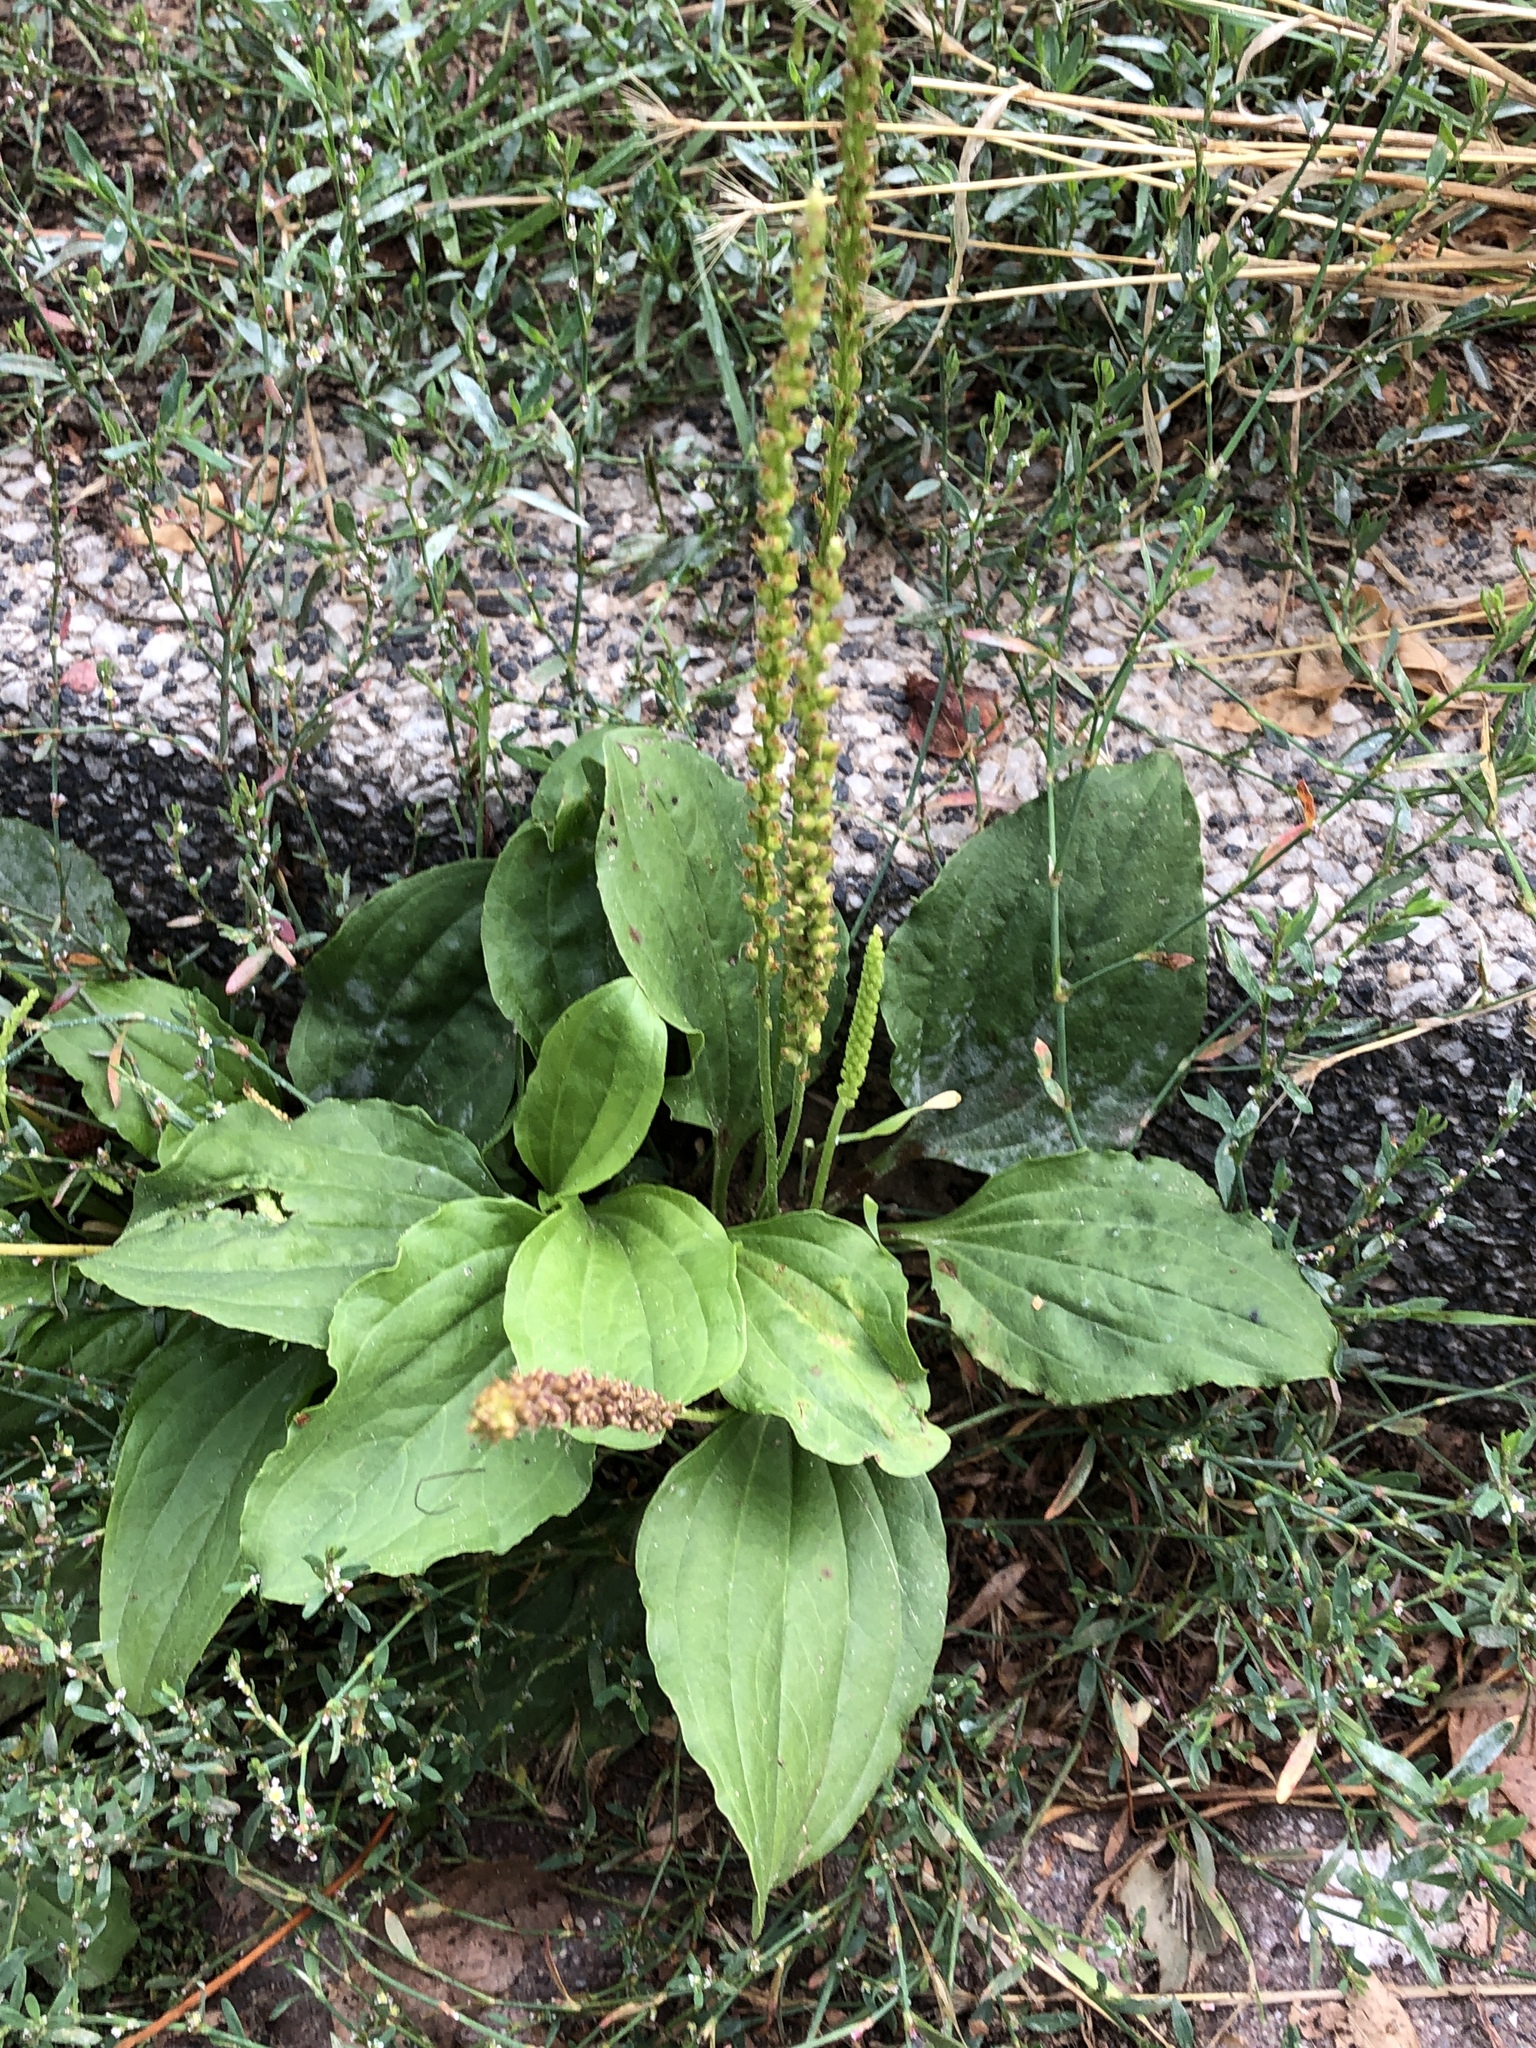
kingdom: Plantae
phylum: Tracheophyta
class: Magnoliopsida
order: Lamiales
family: Plantaginaceae
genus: Plantago
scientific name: Plantago major
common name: Common plantain
